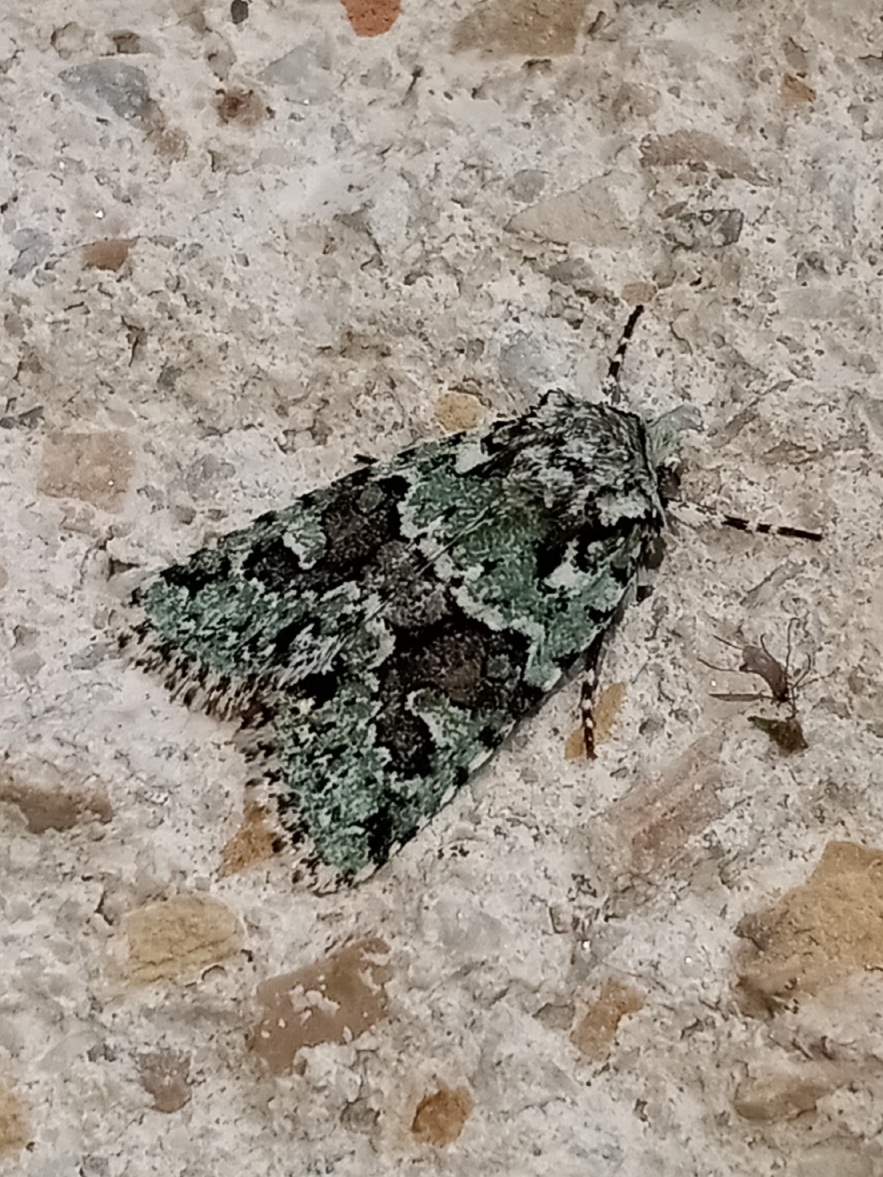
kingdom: Animalia
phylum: Arthropoda
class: Insecta
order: Lepidoptera
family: Noctuidae
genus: Lacinipolia
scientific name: Lacinipolia implicata
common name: Implicit arches
